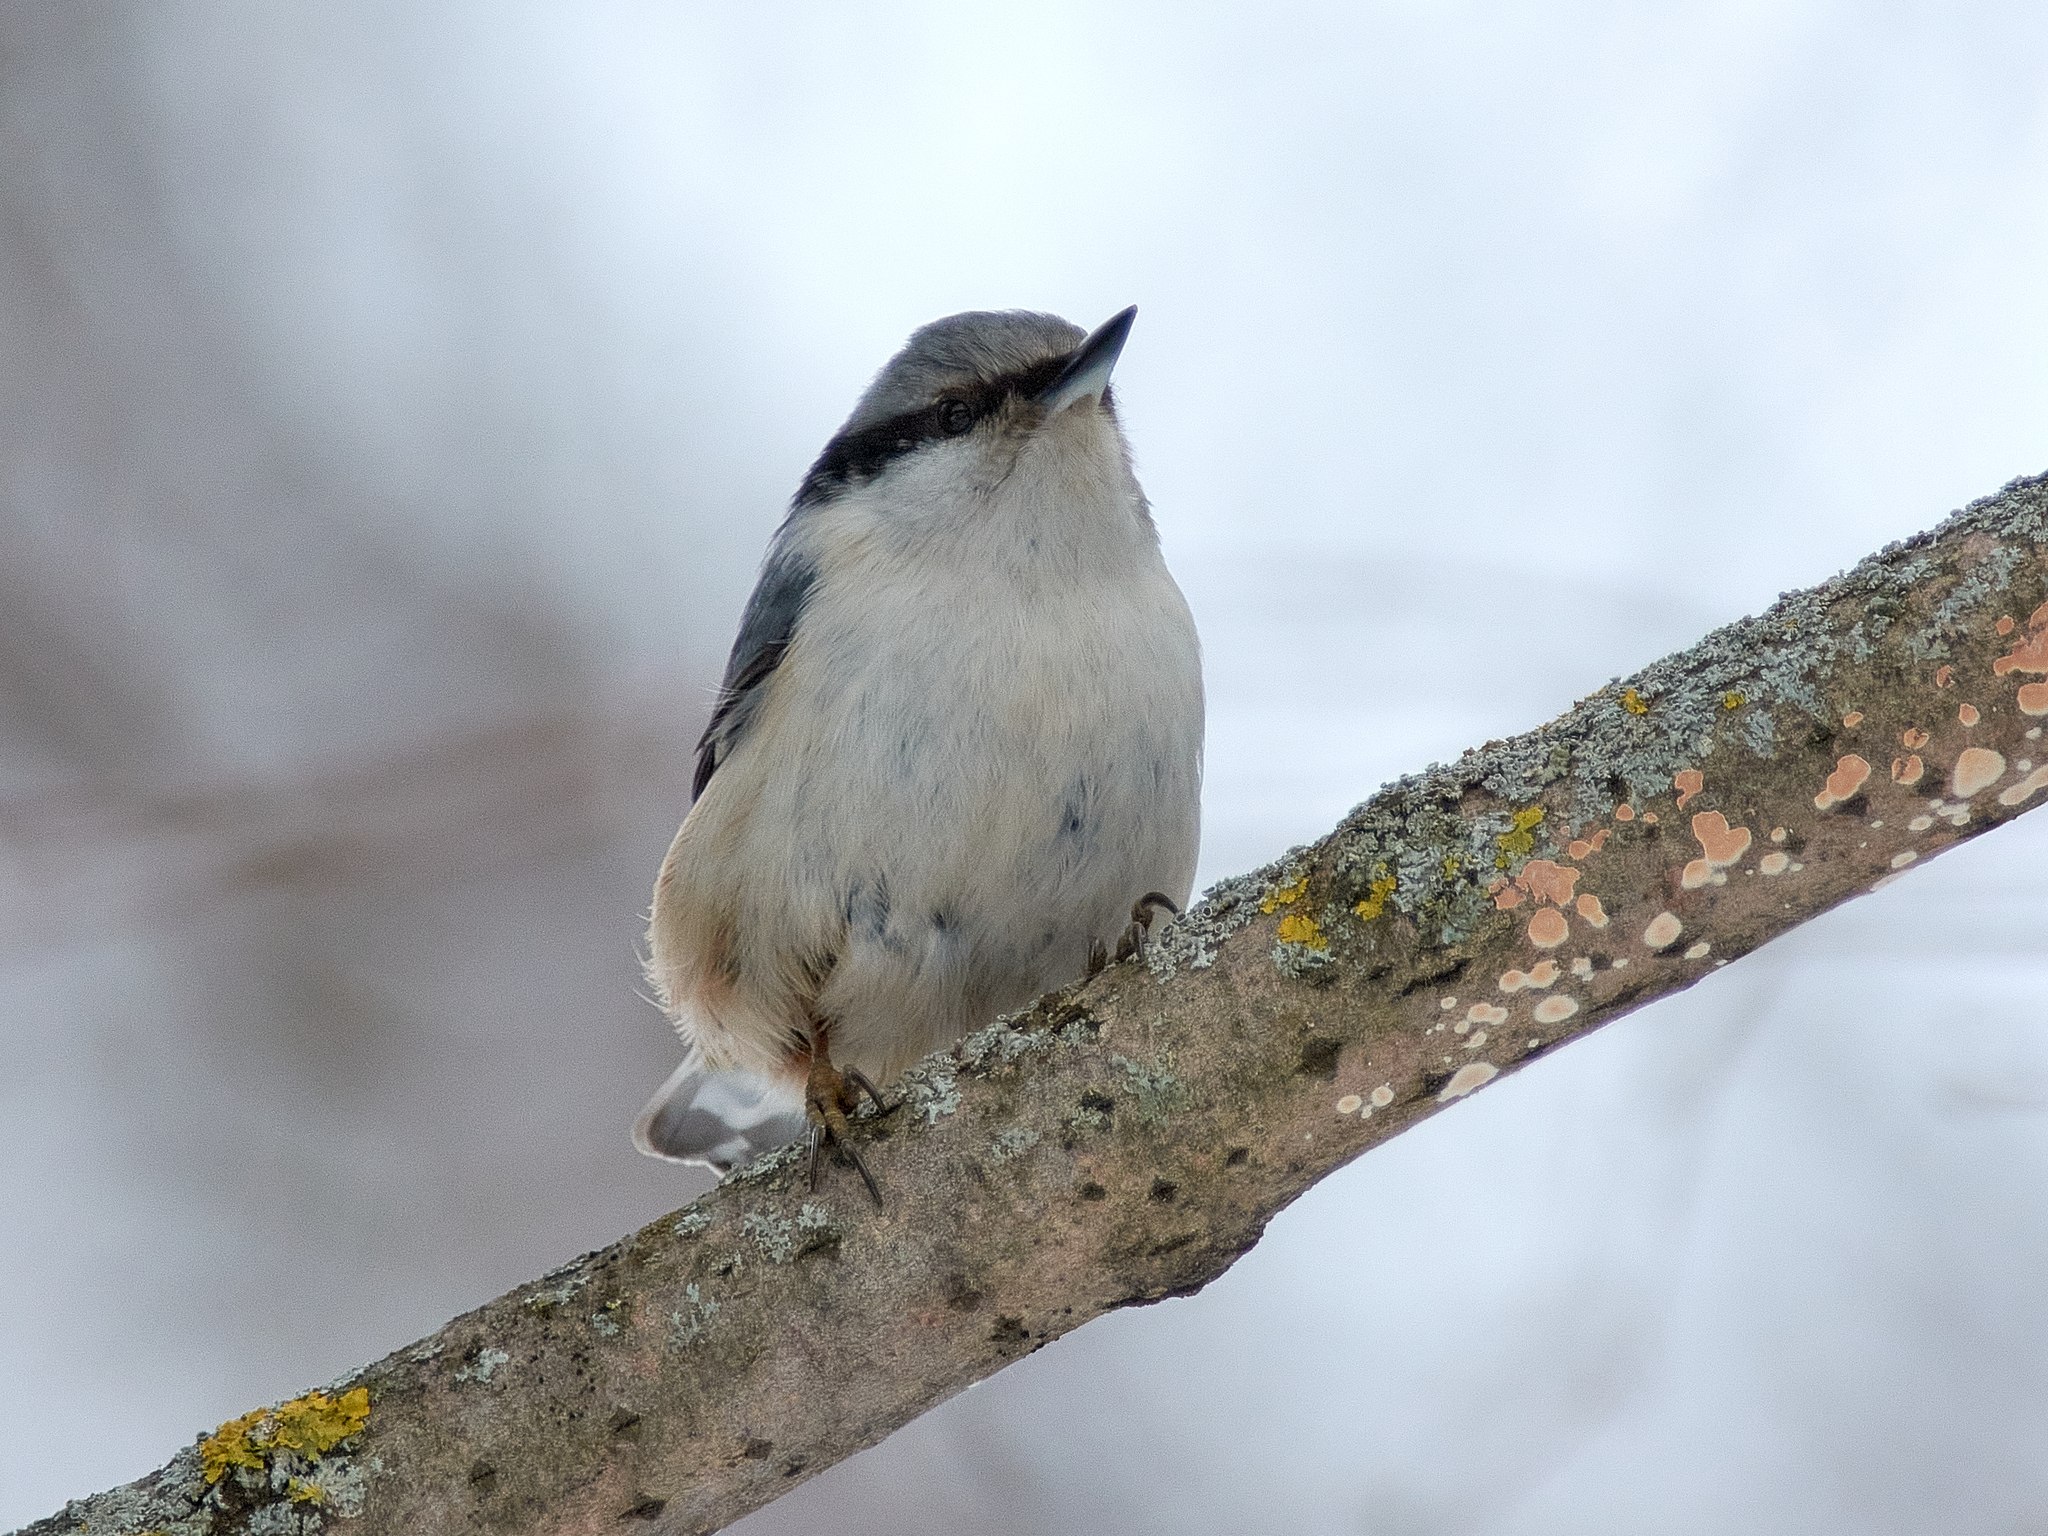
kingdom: Animalia
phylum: Chordata
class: Aves
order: Passeriformes
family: Sittidae
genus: Sitta
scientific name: Sitta europaea
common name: Eurasian nuthatch
